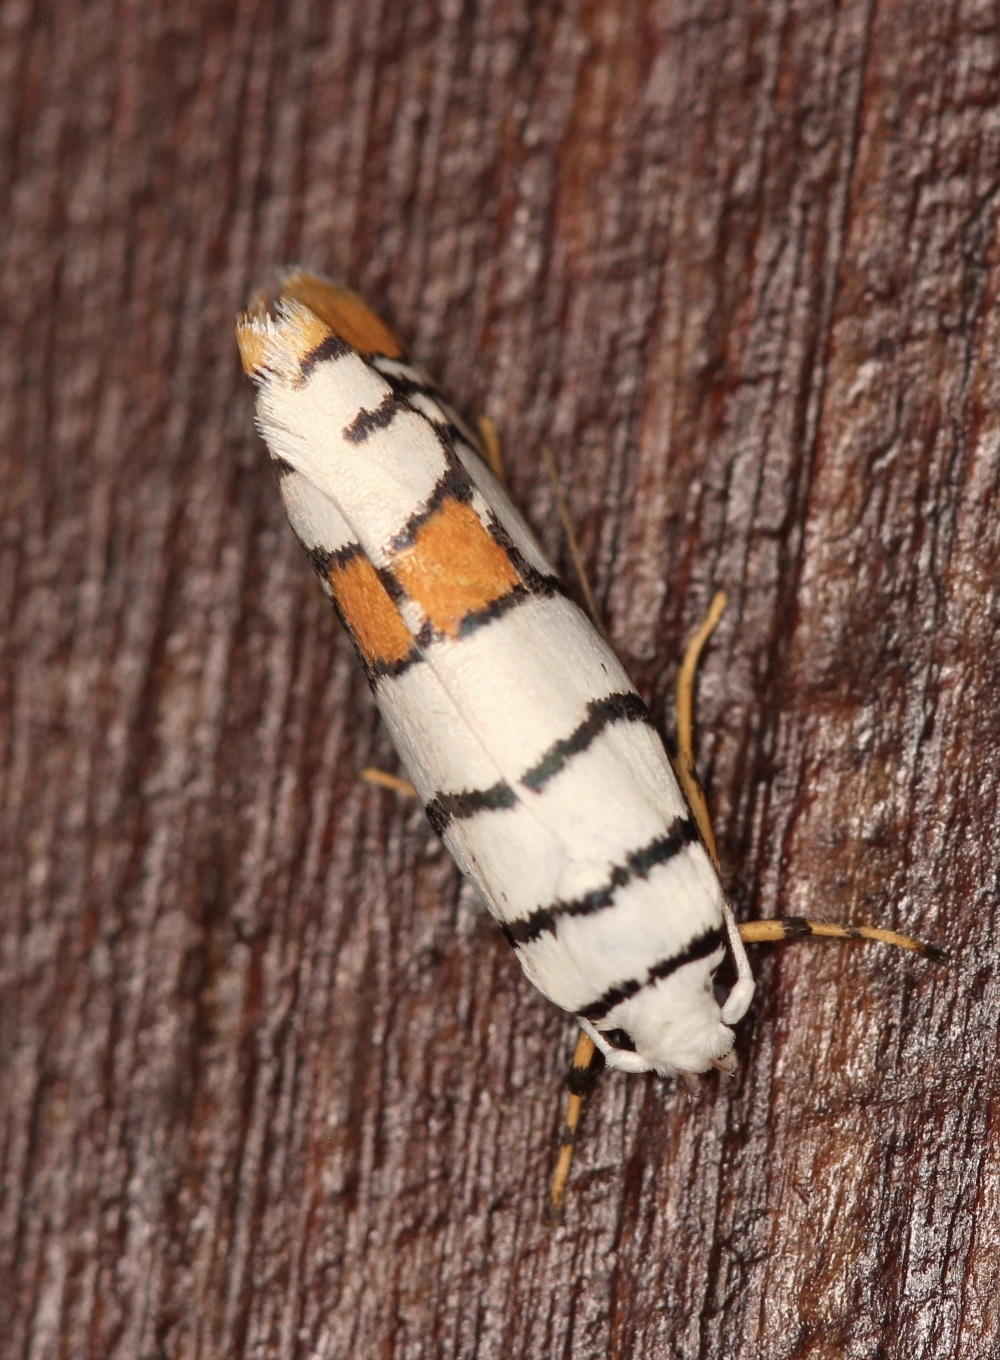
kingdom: Animalia
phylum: Arthropoda
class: Insecta
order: Lepidoptera
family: Ethmiidae
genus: Ethmia
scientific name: Ethmia festiva
